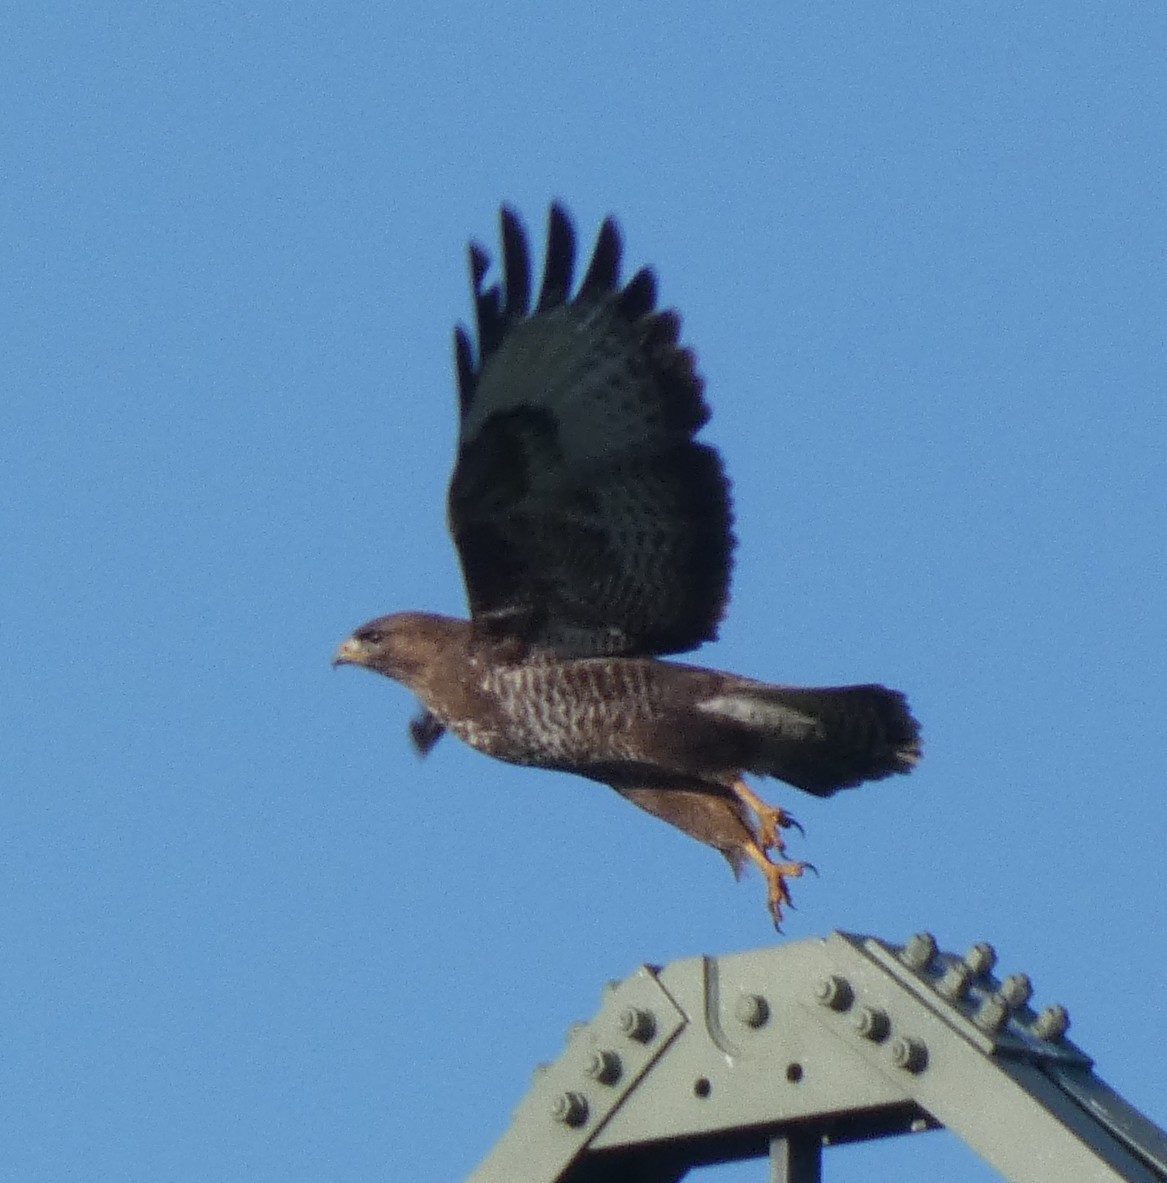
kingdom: Animalia
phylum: Chordata
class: Aves
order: Accipitriformes
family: Accipitridae
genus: Buteo
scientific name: Buteo buteo
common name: Common buzzard
